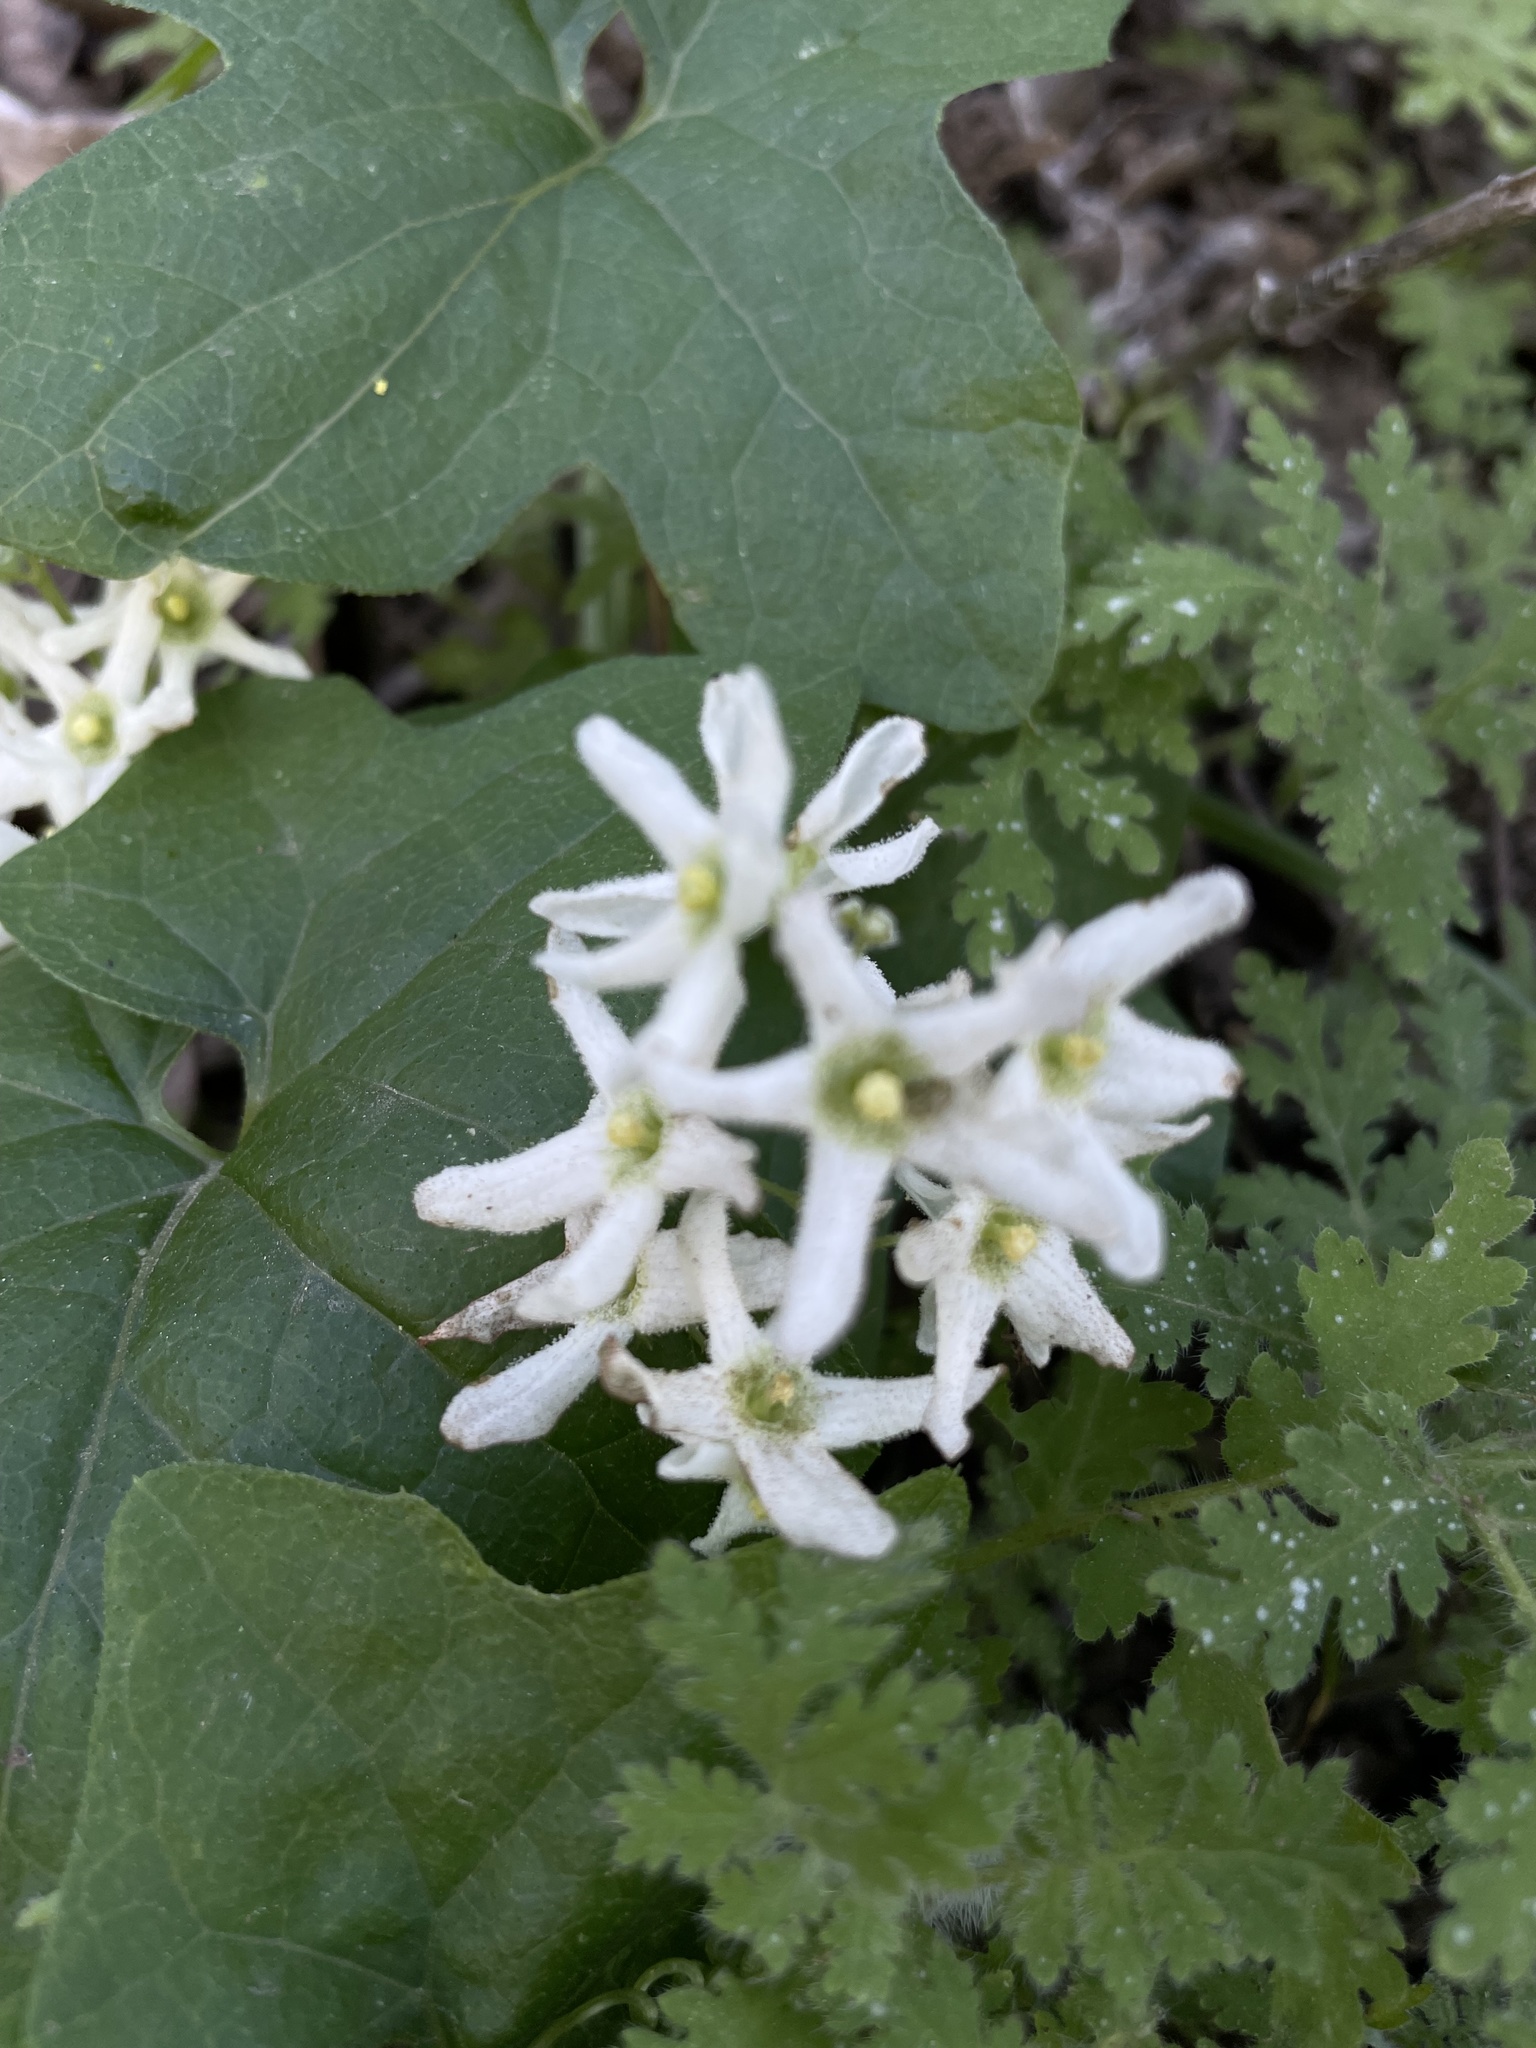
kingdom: Plantae
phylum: Tracheophyta
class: Magnoliopsida
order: Cucurbitales
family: Cucurbitaceae
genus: Marah
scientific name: Marah macrocarpa
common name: Cucamonga manroot
